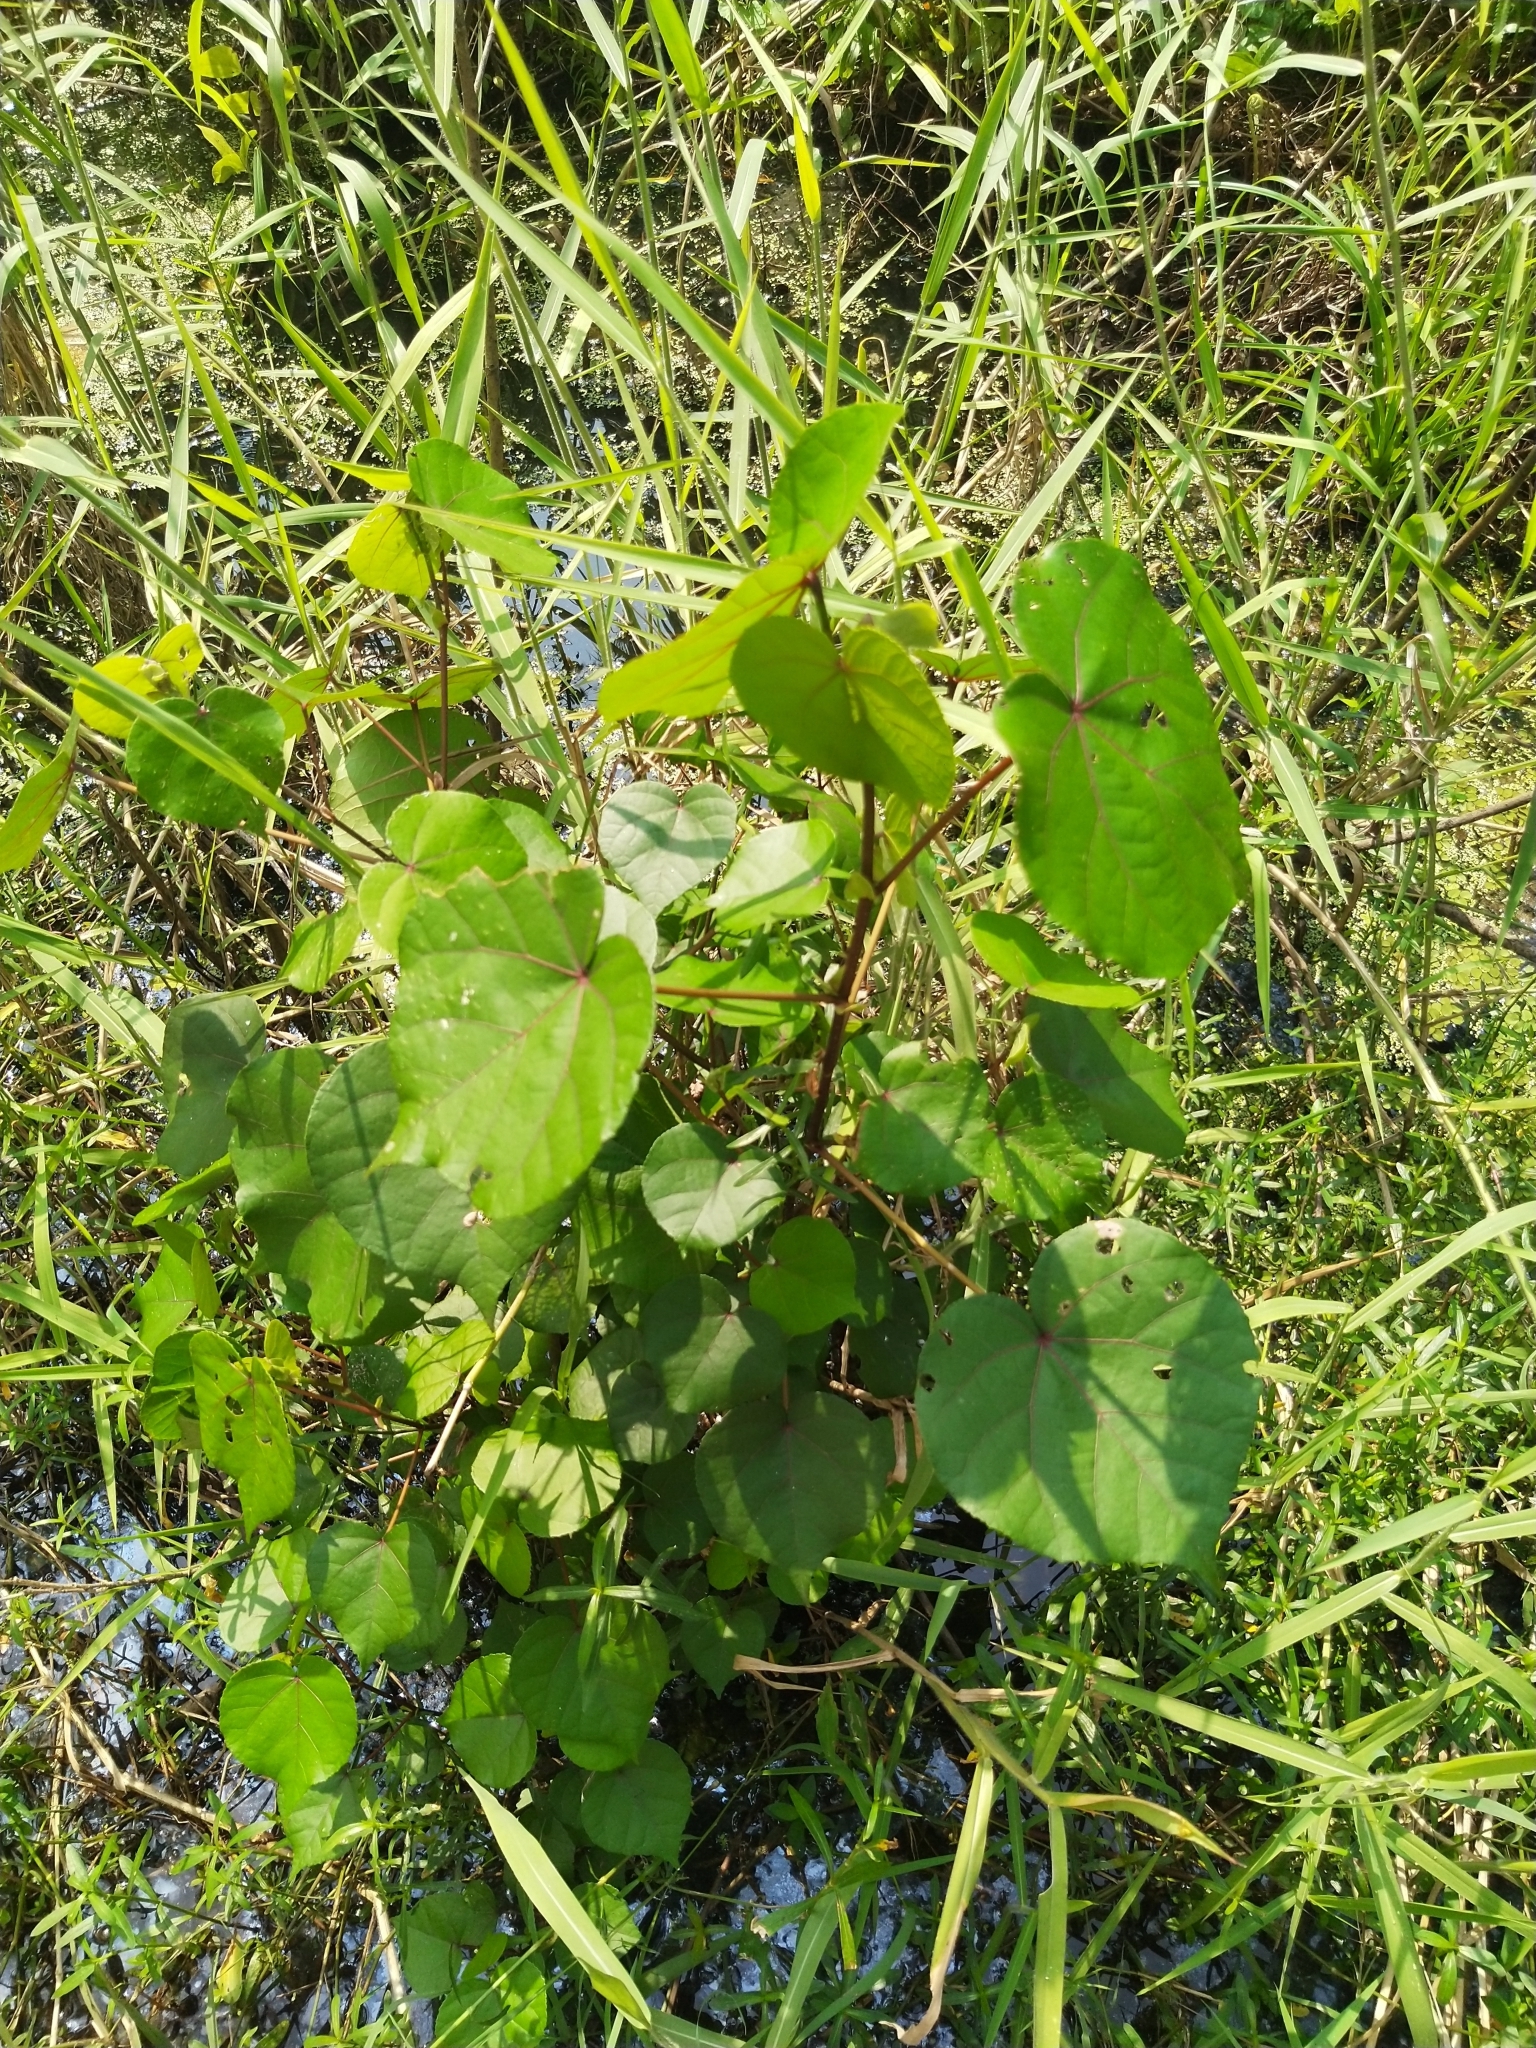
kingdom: Plantae
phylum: Tracheophyta
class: Magnoliopsida
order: Malvales
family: Malvaceae
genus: Talipariti
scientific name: Talipariti tiliaceum
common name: Sea hibiscus
